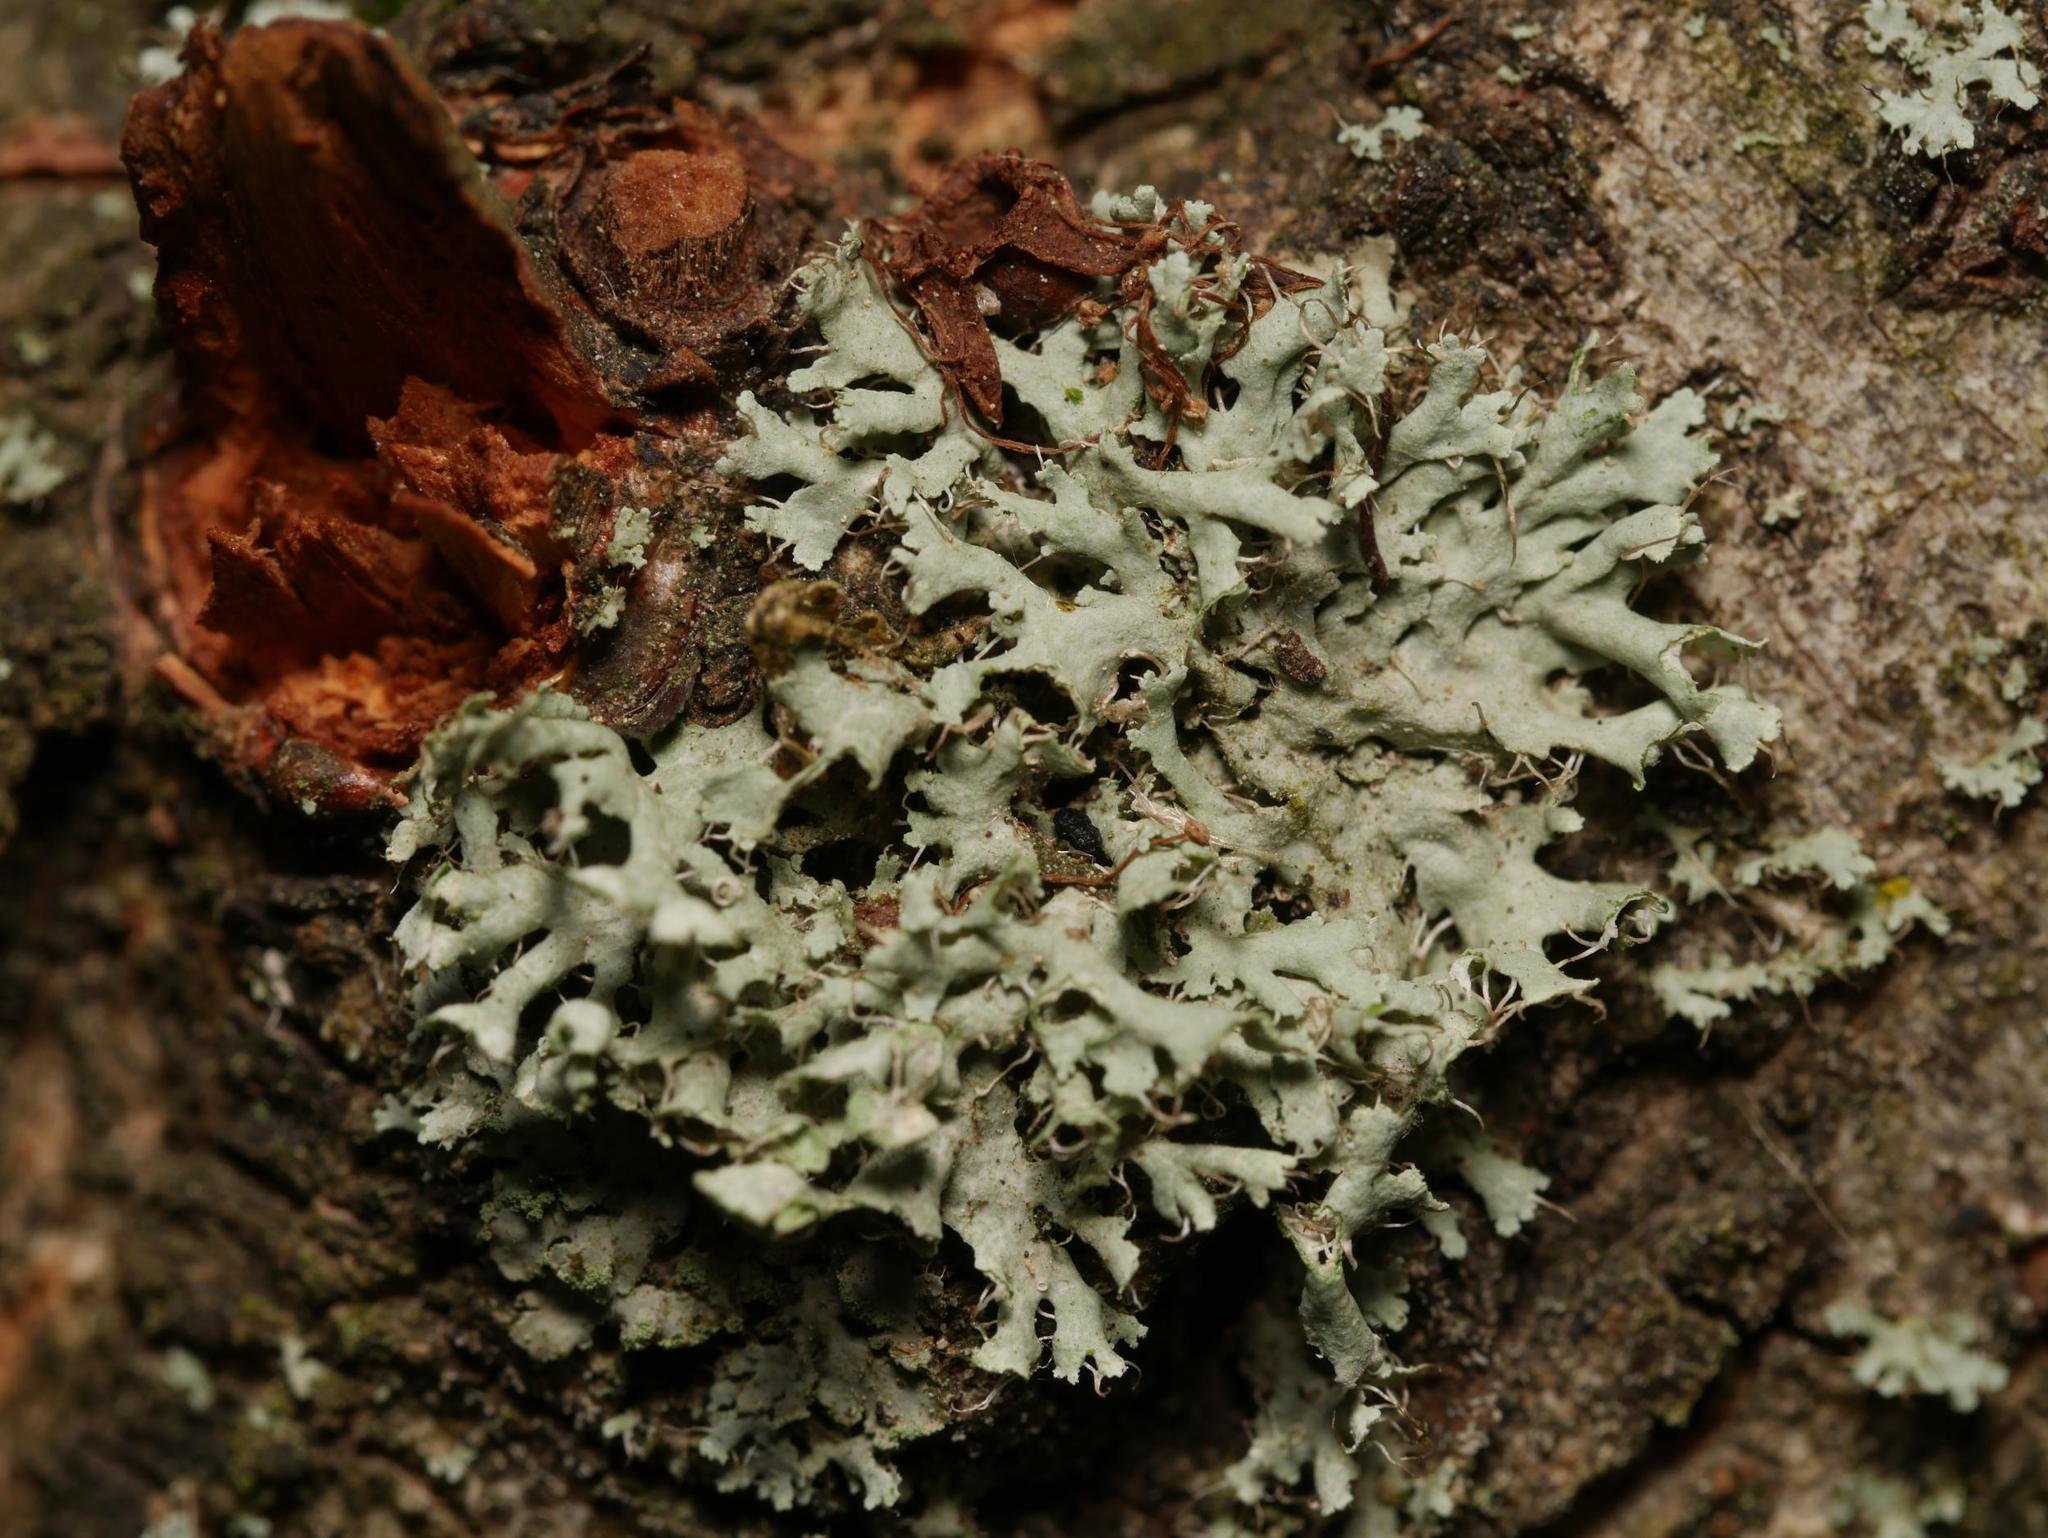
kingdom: Fungi
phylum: Ascomycota
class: Lecanoromycetes
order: Caliciales
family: Physciaceae
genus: Physcia
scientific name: Physcia adscendens
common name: Hooded rosette lichen
